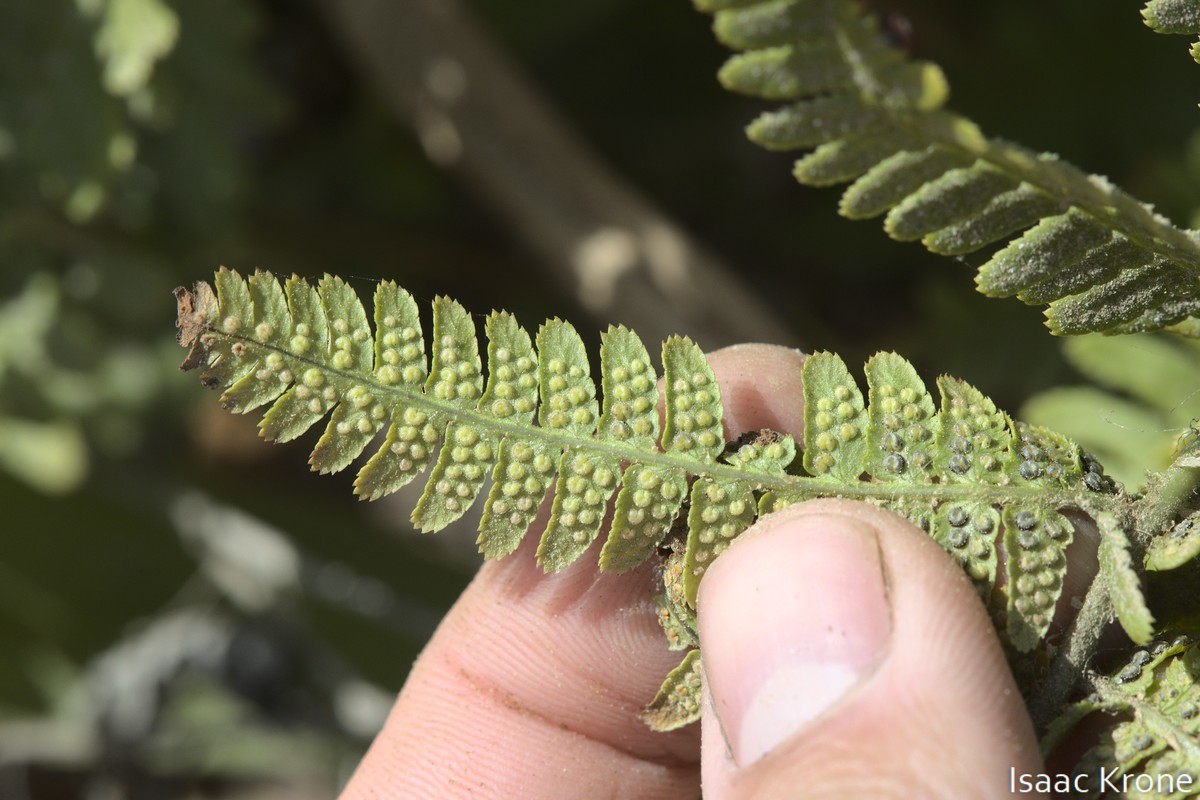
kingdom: Plantae
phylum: Tracheophyta
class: Polypodiopsida
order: Polypodiales
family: Dryopteridaceae
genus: Dryopteris
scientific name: Dryopteris arguta
